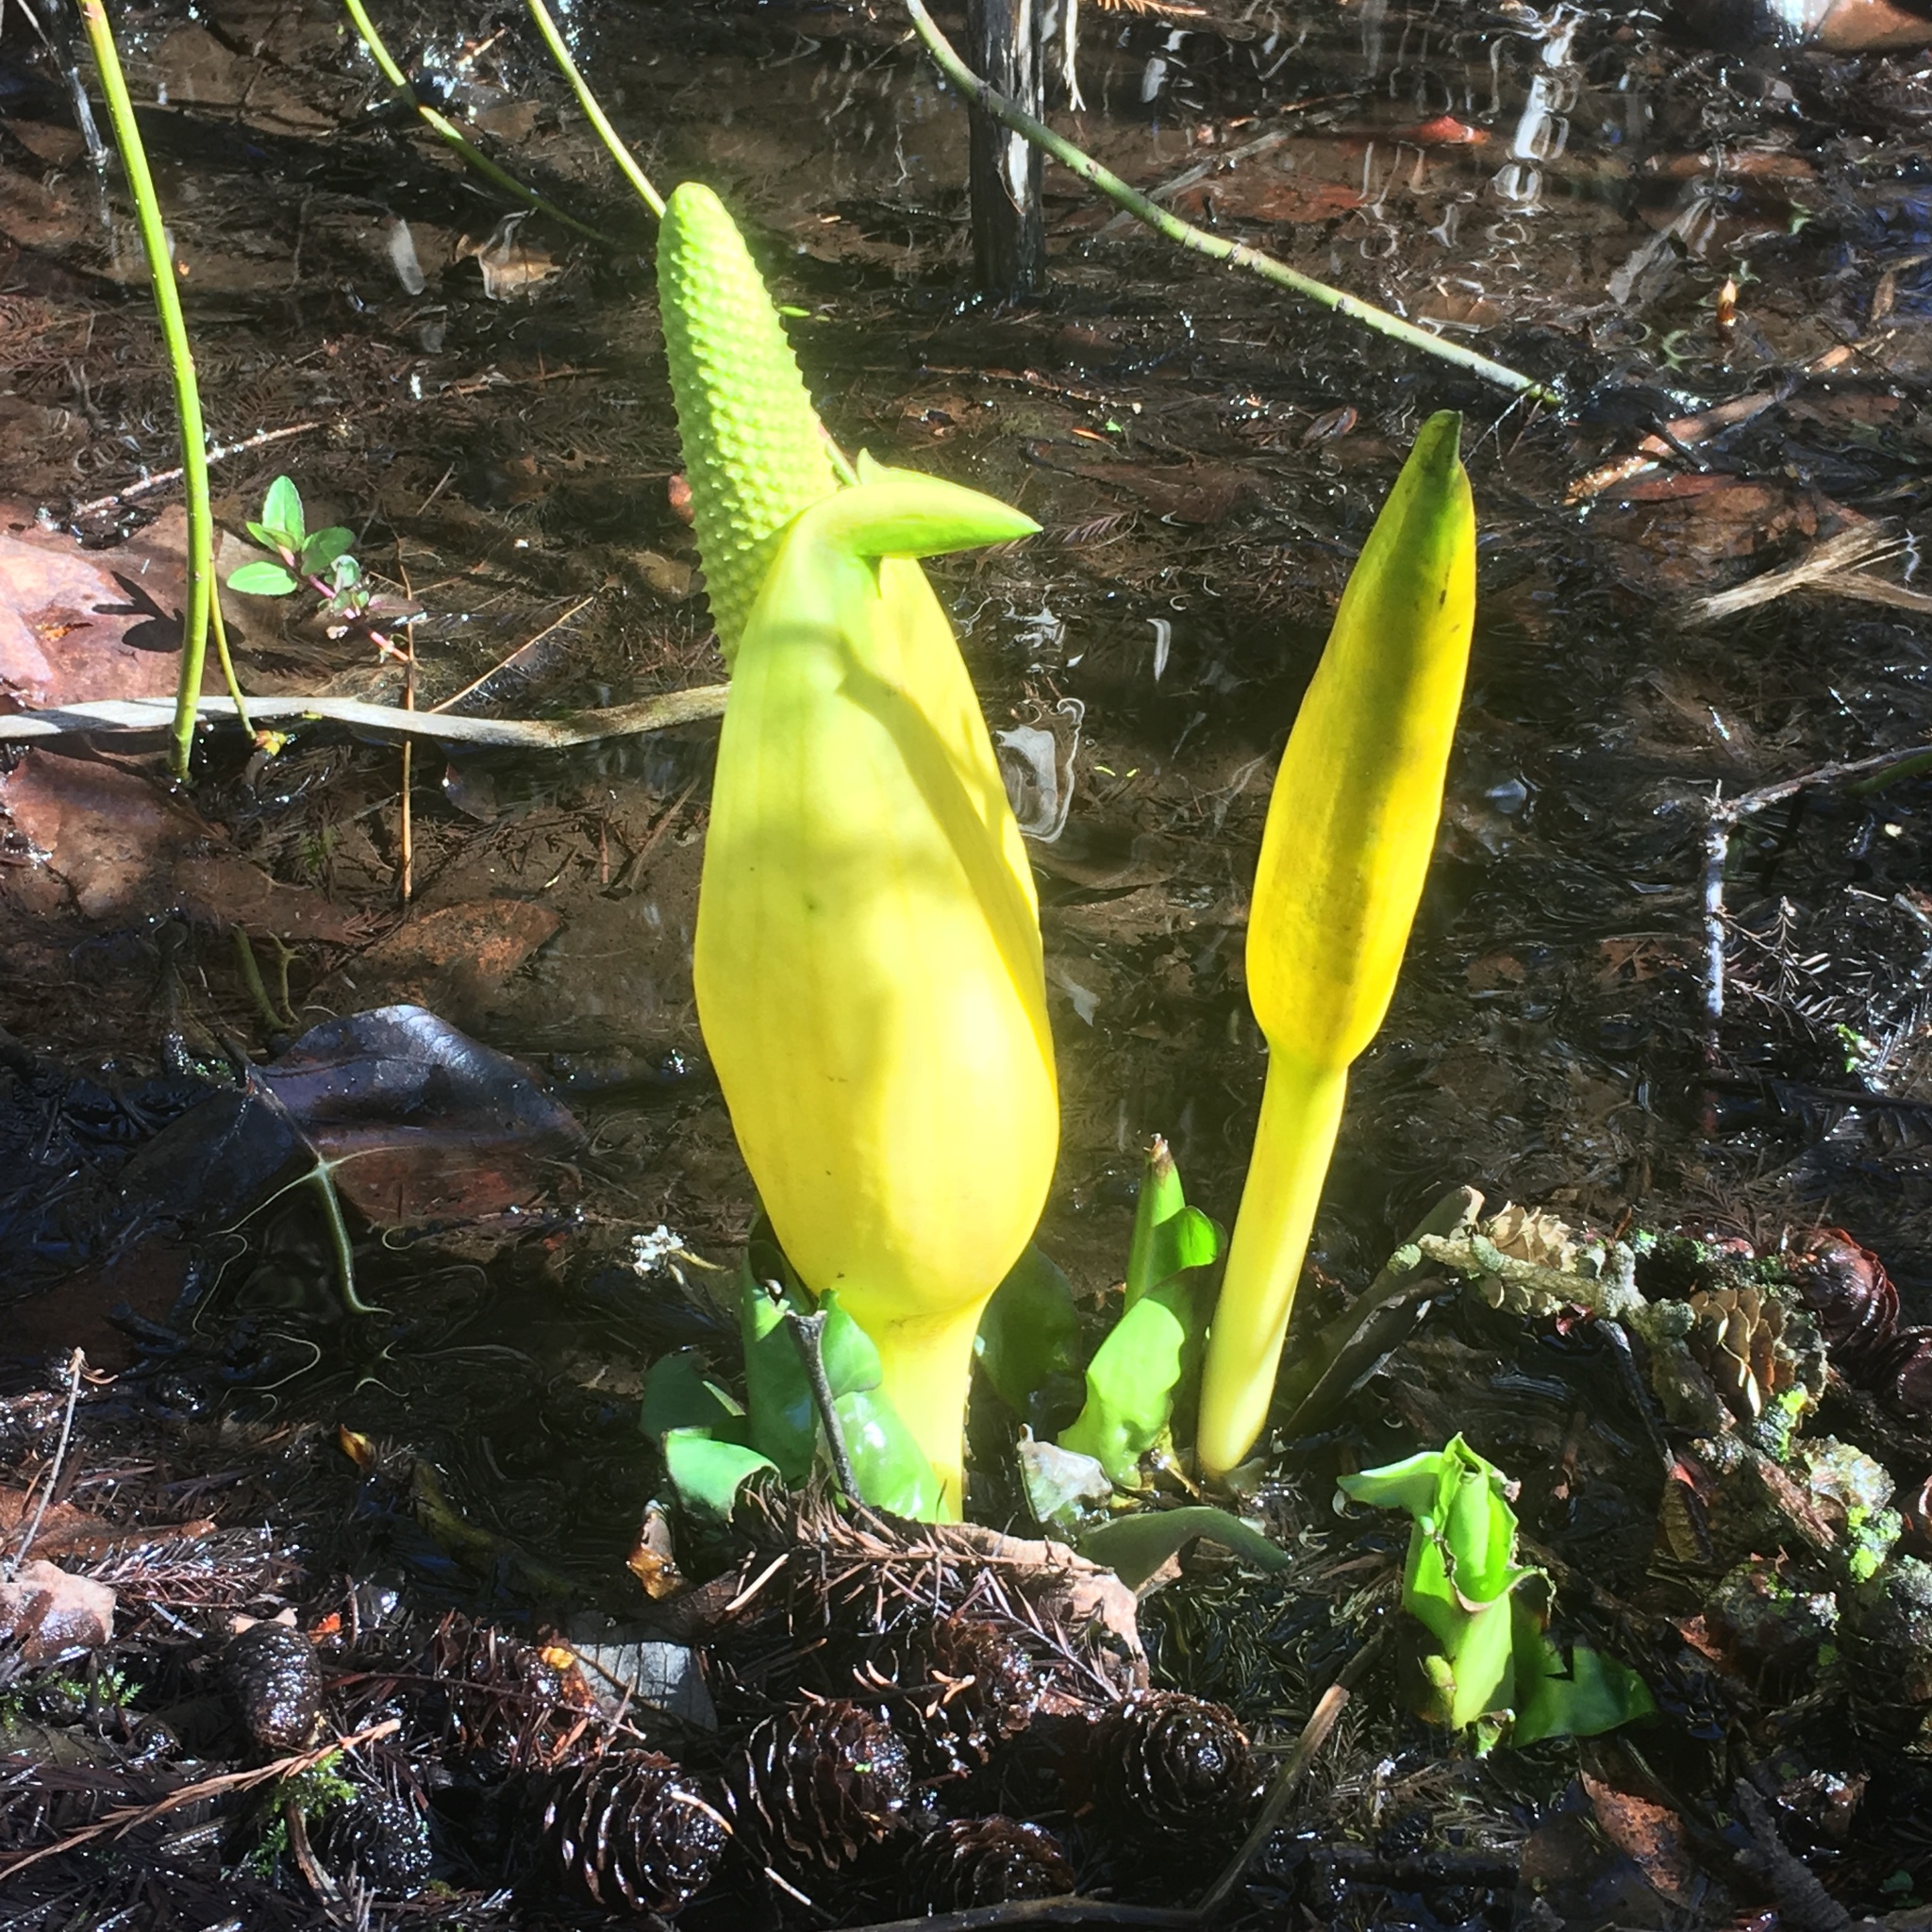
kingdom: Plantae
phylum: Tracheophyta
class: Liliopsida
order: Alismatales
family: Araceae
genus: Lysichiton
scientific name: Lysichiton americanus
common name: American skunk cabbage
